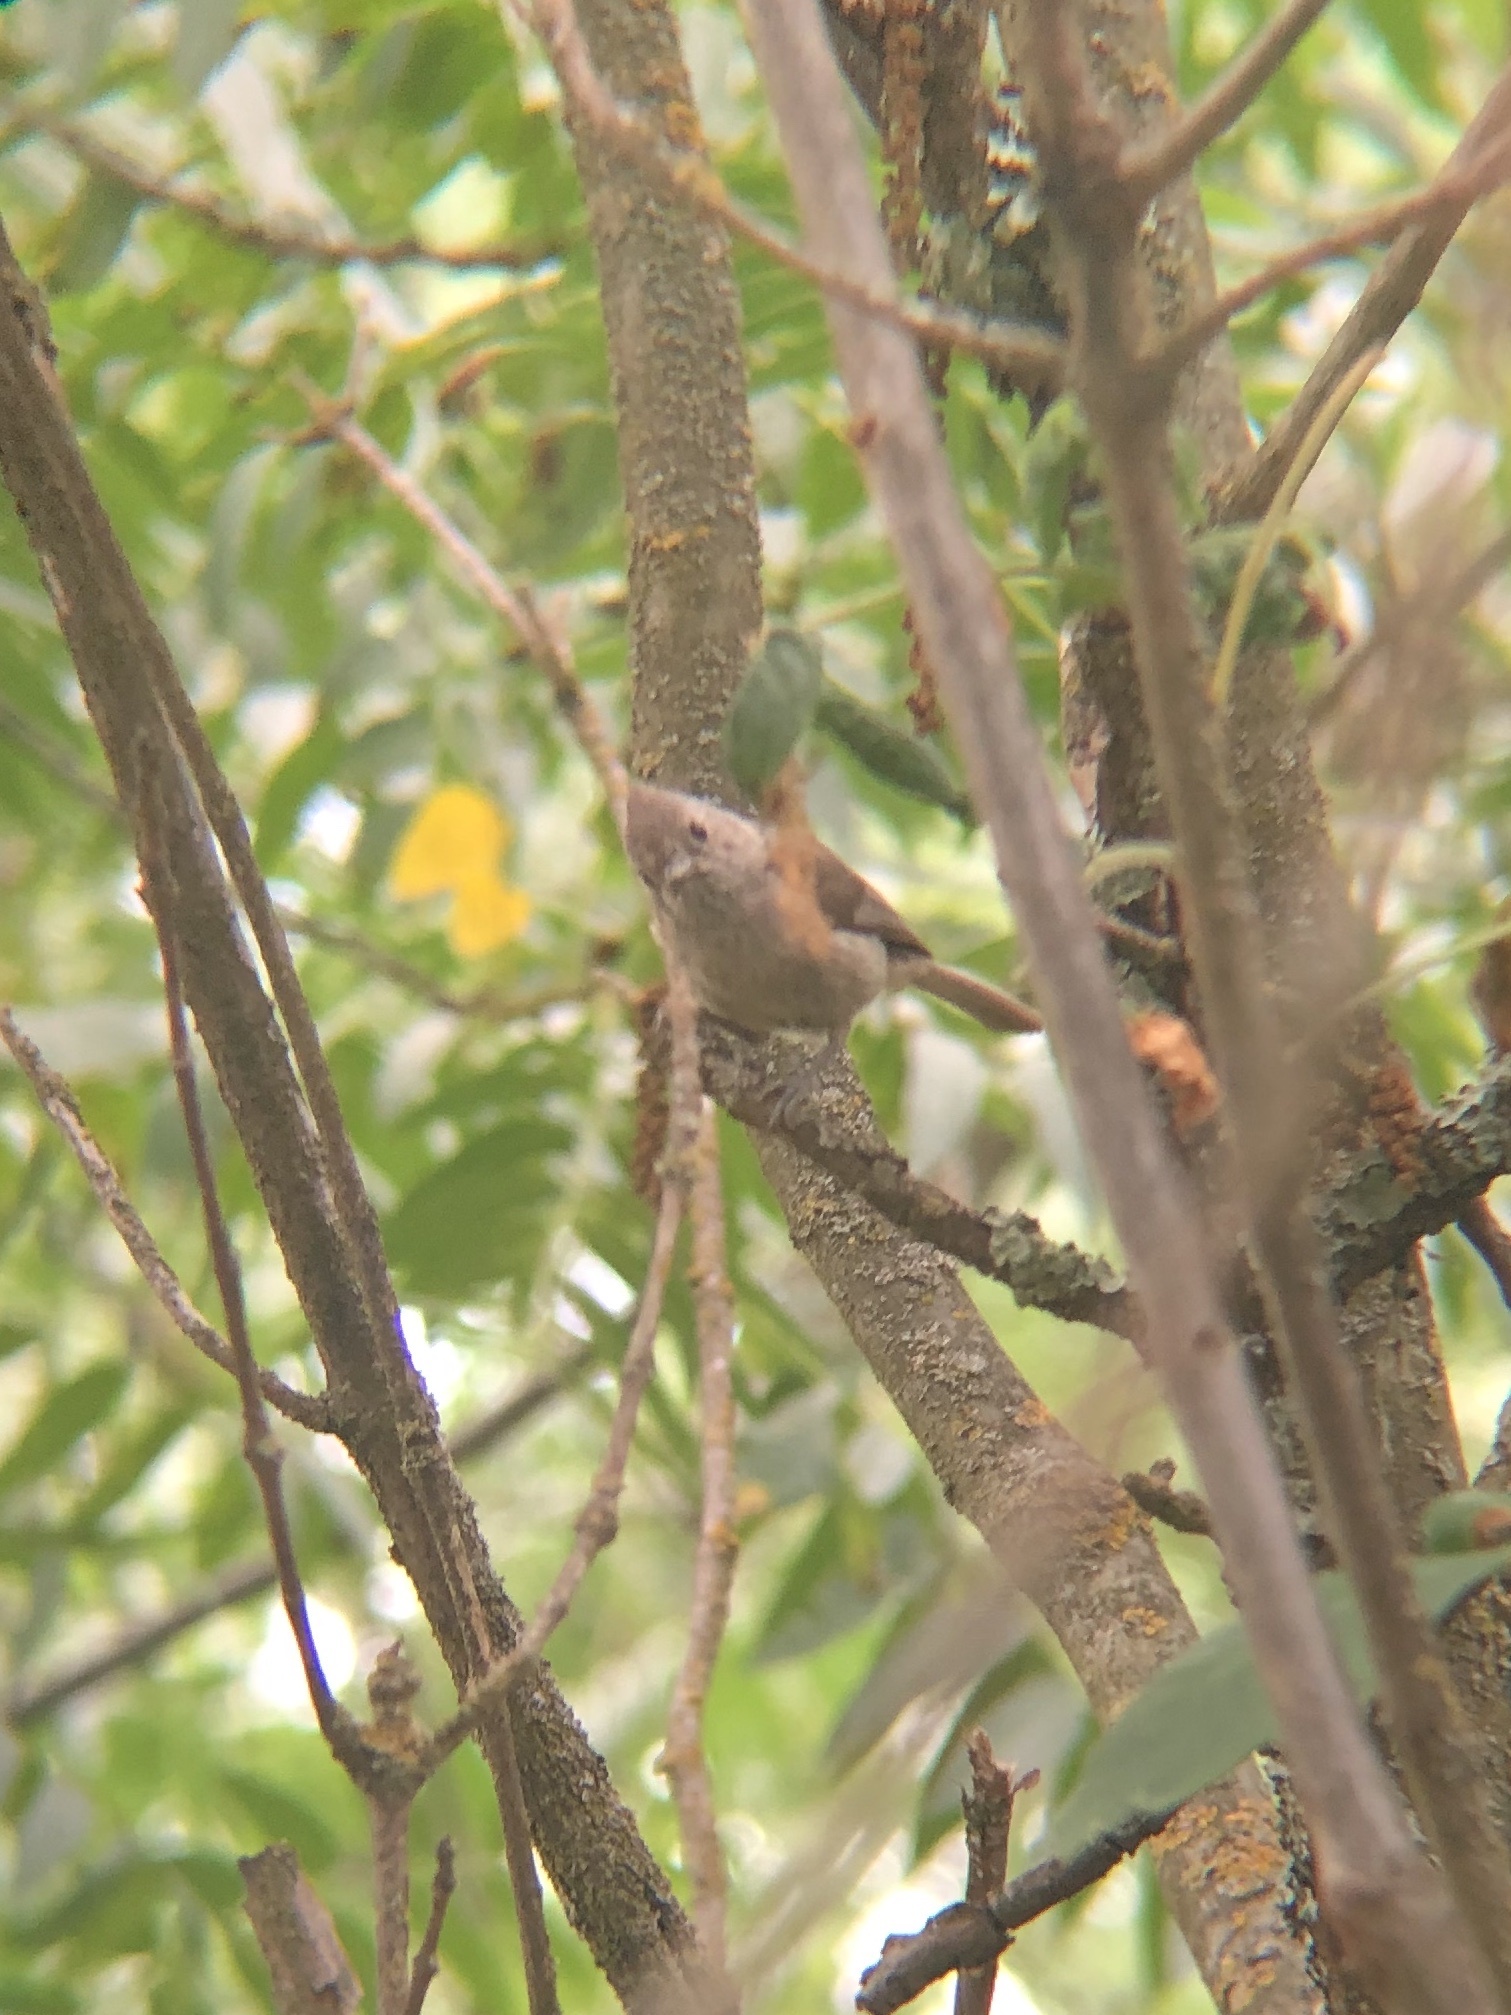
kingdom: Animalia
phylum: Chordata
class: Aves
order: Passeriformes
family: Paridae
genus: Baeolophus
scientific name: Baeolophus inornatus
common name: Oak titmouse
